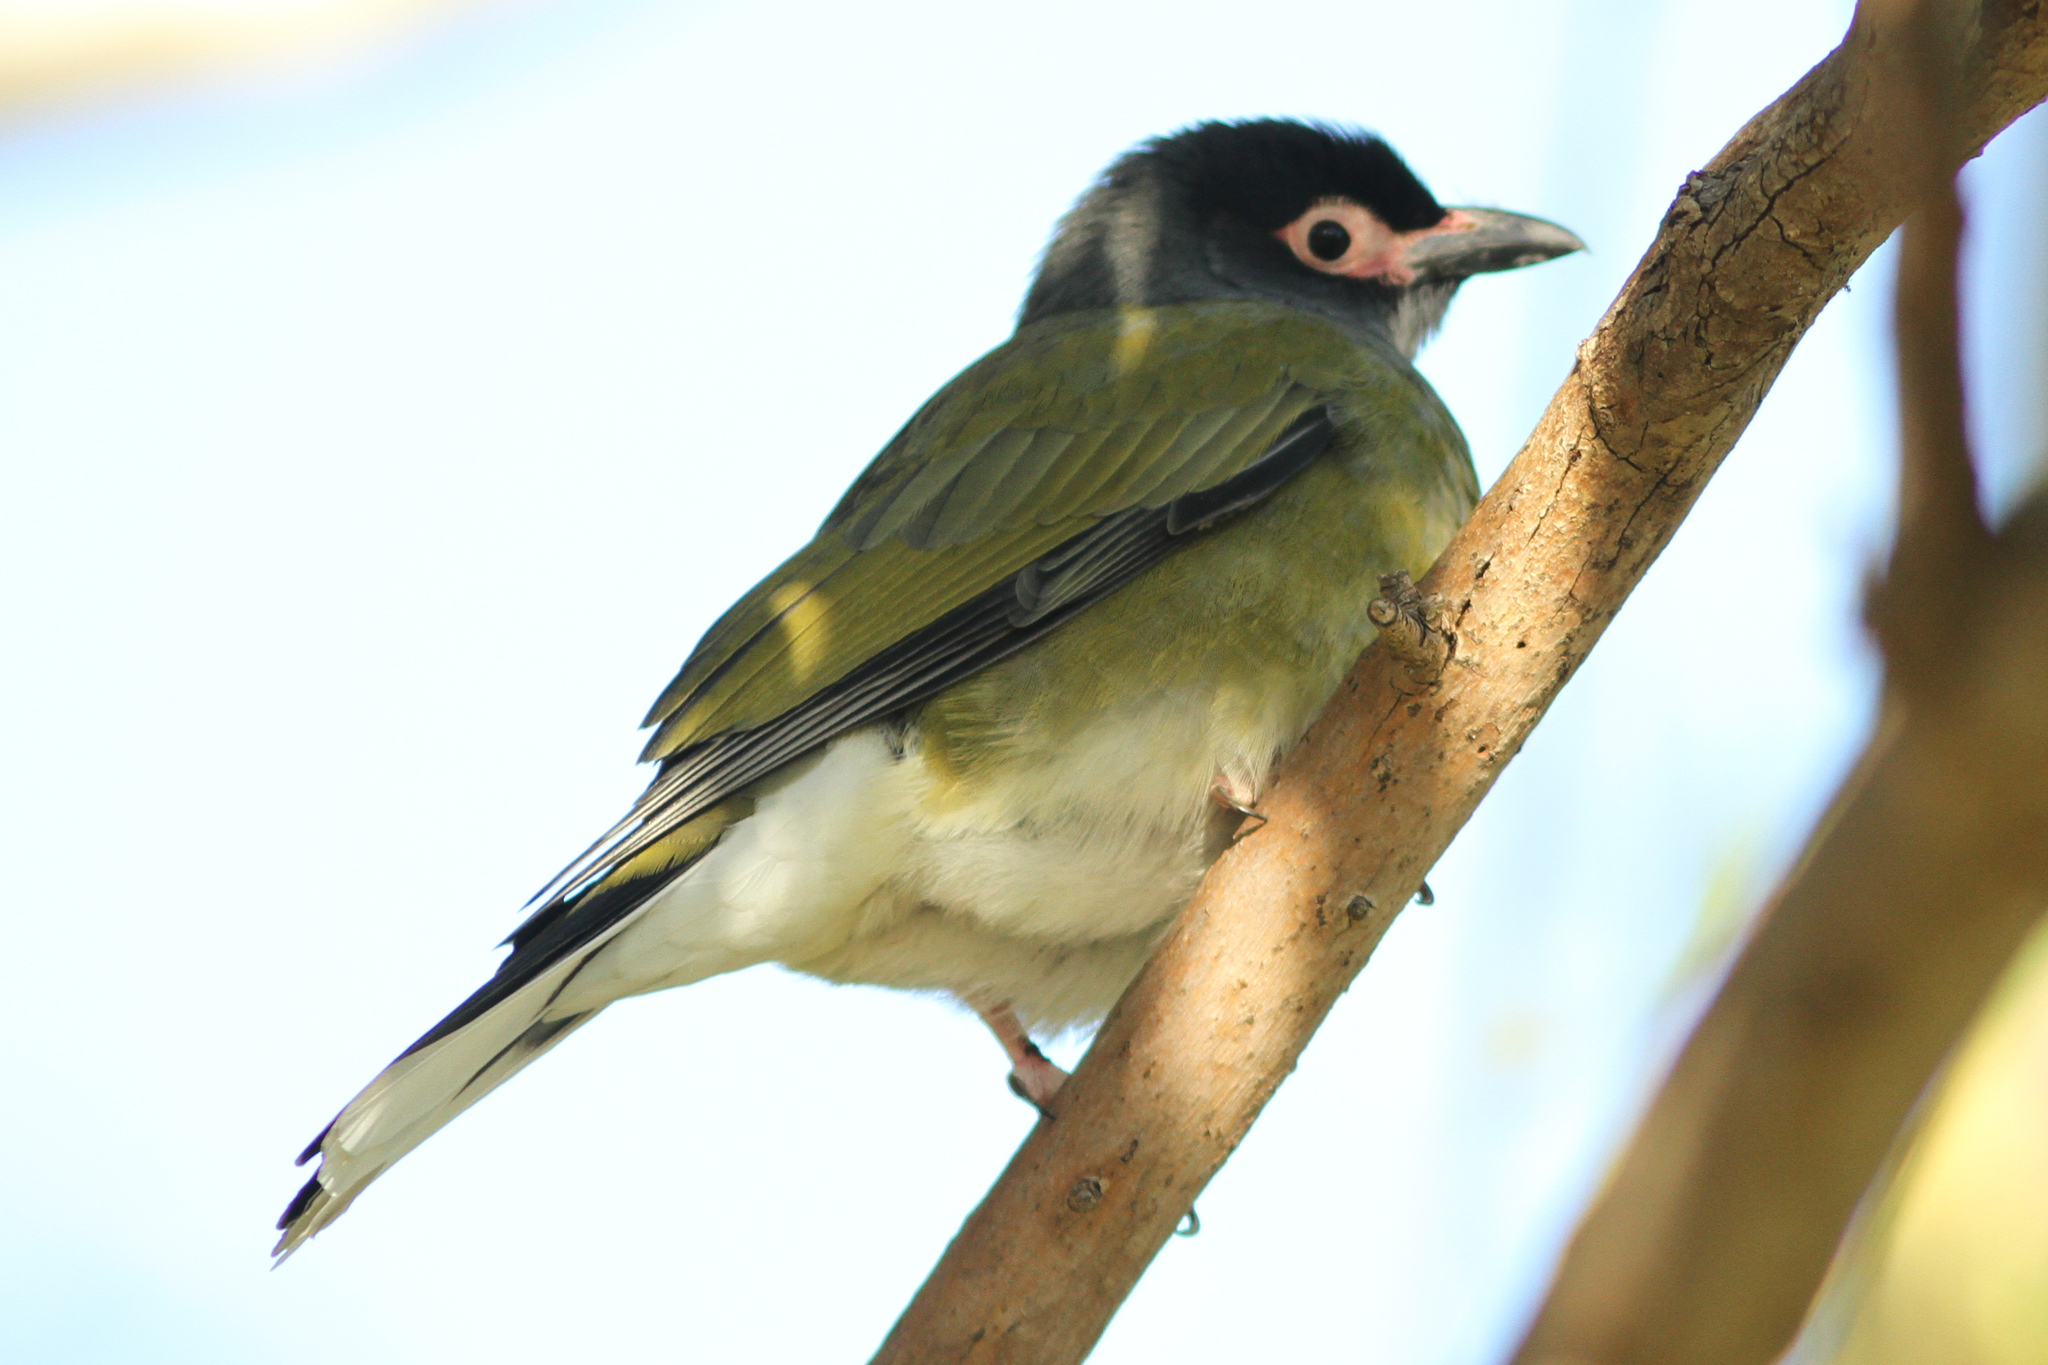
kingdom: Animalia
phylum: Chordata
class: Aves
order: Passeriformes
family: Oriolidae
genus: Sphecotheres
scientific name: Sphecotheres vieilloti
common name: Australasian figbird
